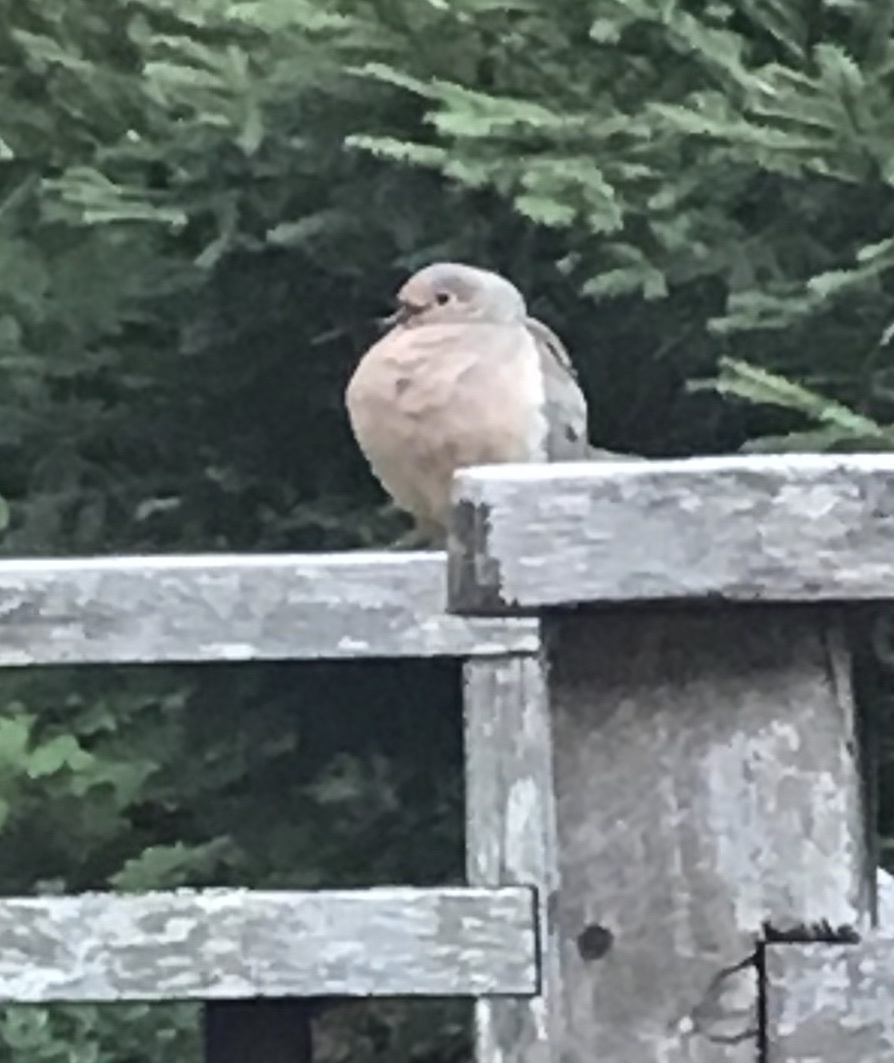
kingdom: Animalia
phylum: Chordata
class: Aves
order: Columbiformes
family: Columbidae
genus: Zenaida
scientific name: Zenaida macroura
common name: Mourning dove
